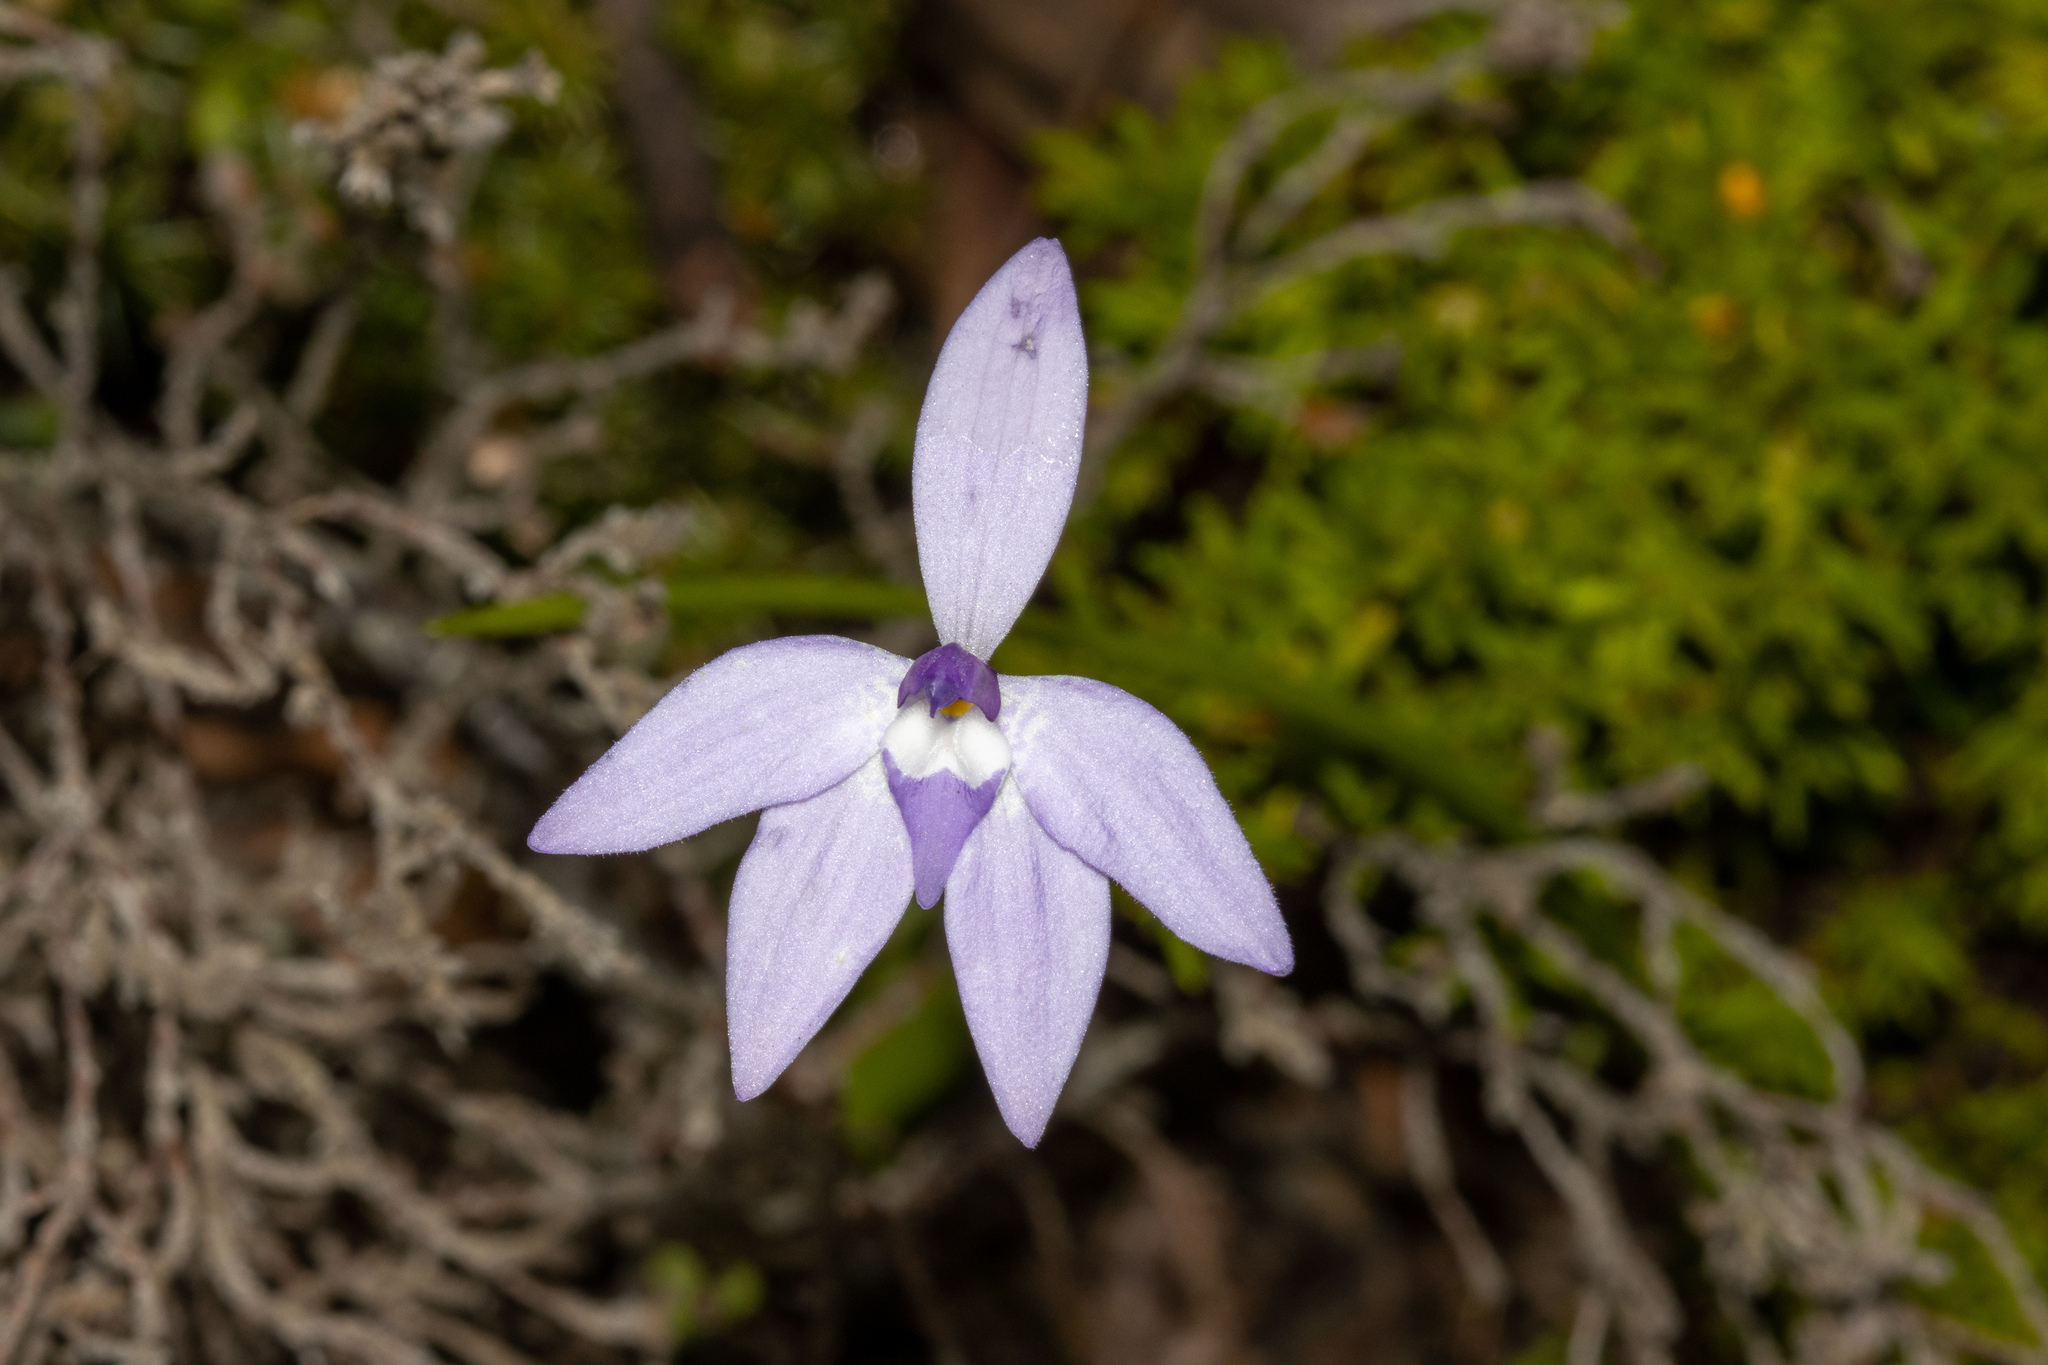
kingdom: Plantae
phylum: Tracheophyta
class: Liliopsida
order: Asparagales
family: Orchidaceae
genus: Caladenia
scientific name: Caladenia major
